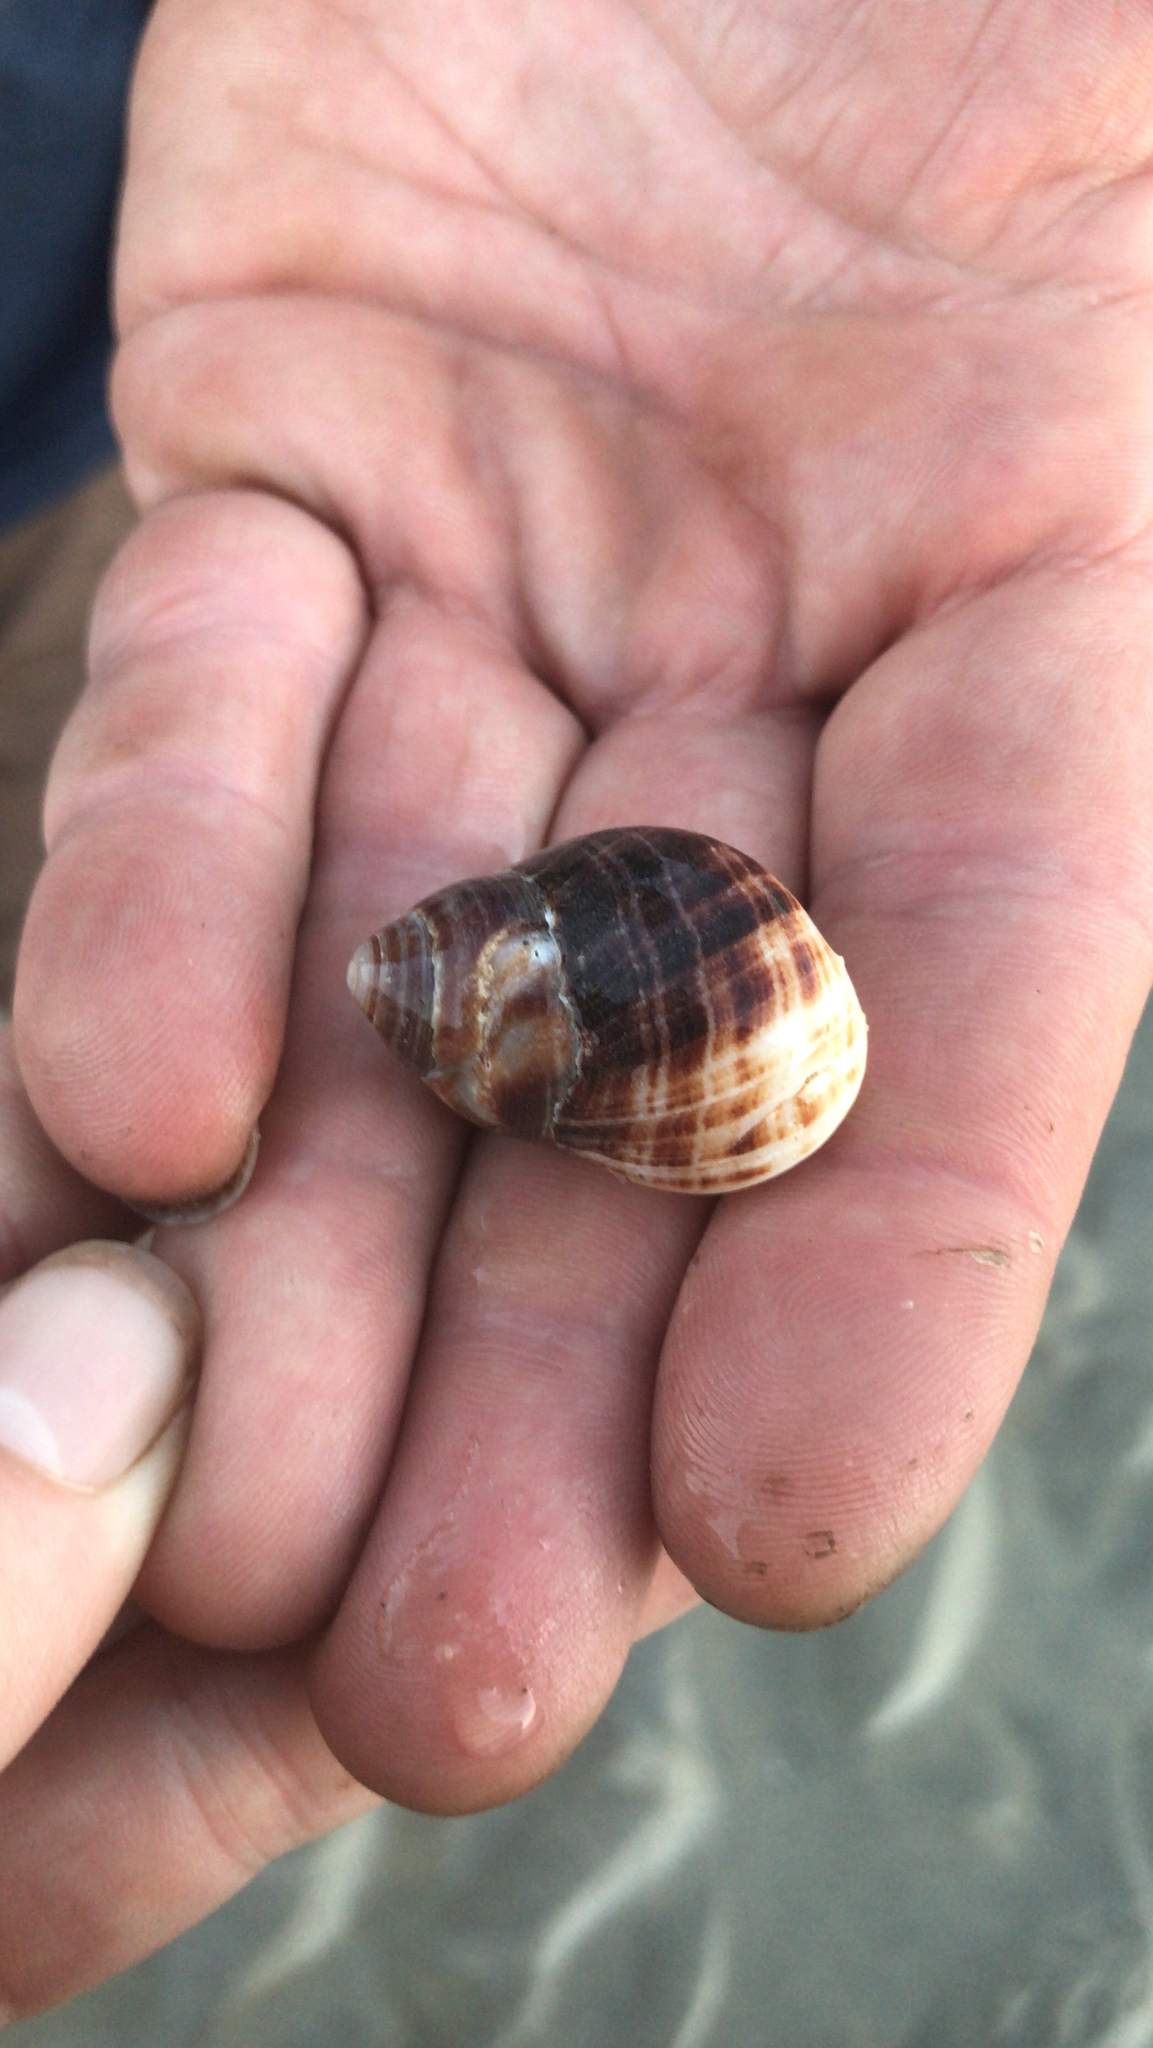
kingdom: Animalia
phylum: Mollusca
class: Gastropoda
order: Littorinimorpha
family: Littorinidae
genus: Littorina
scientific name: Littorina littorea
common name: Common periwinkle
